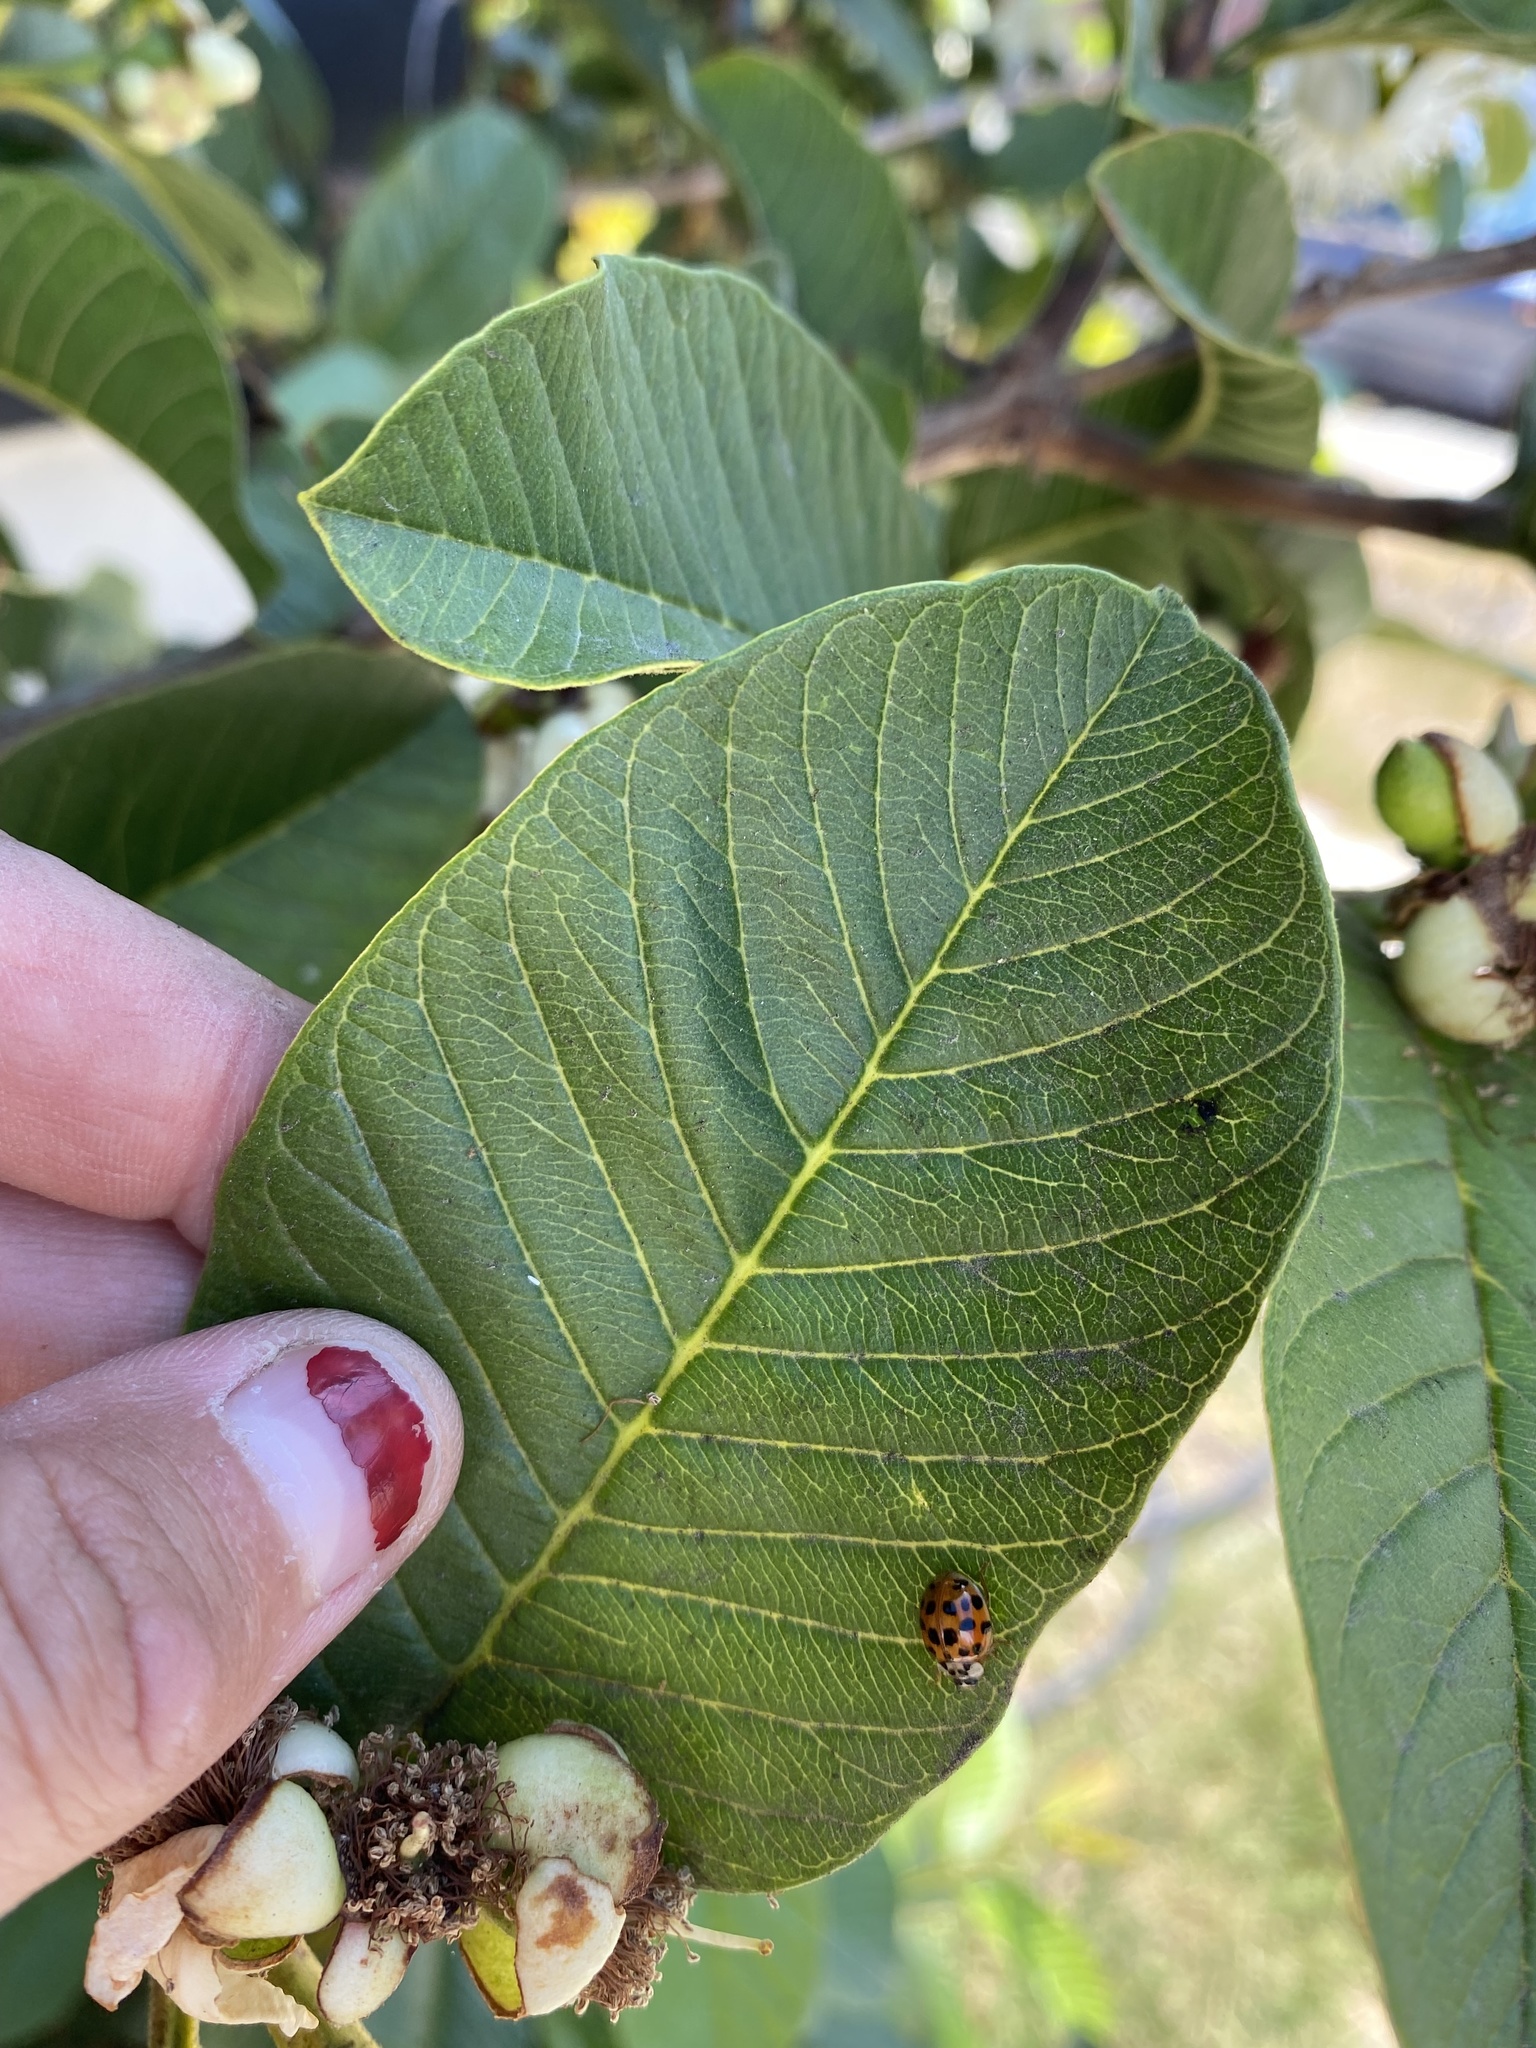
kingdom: Animalia
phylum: Arthropoda
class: Insecta
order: Coleoptera
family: Coccinellidae
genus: Harmonia
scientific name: Harmonia axyridis
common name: Harlequin ladybird
